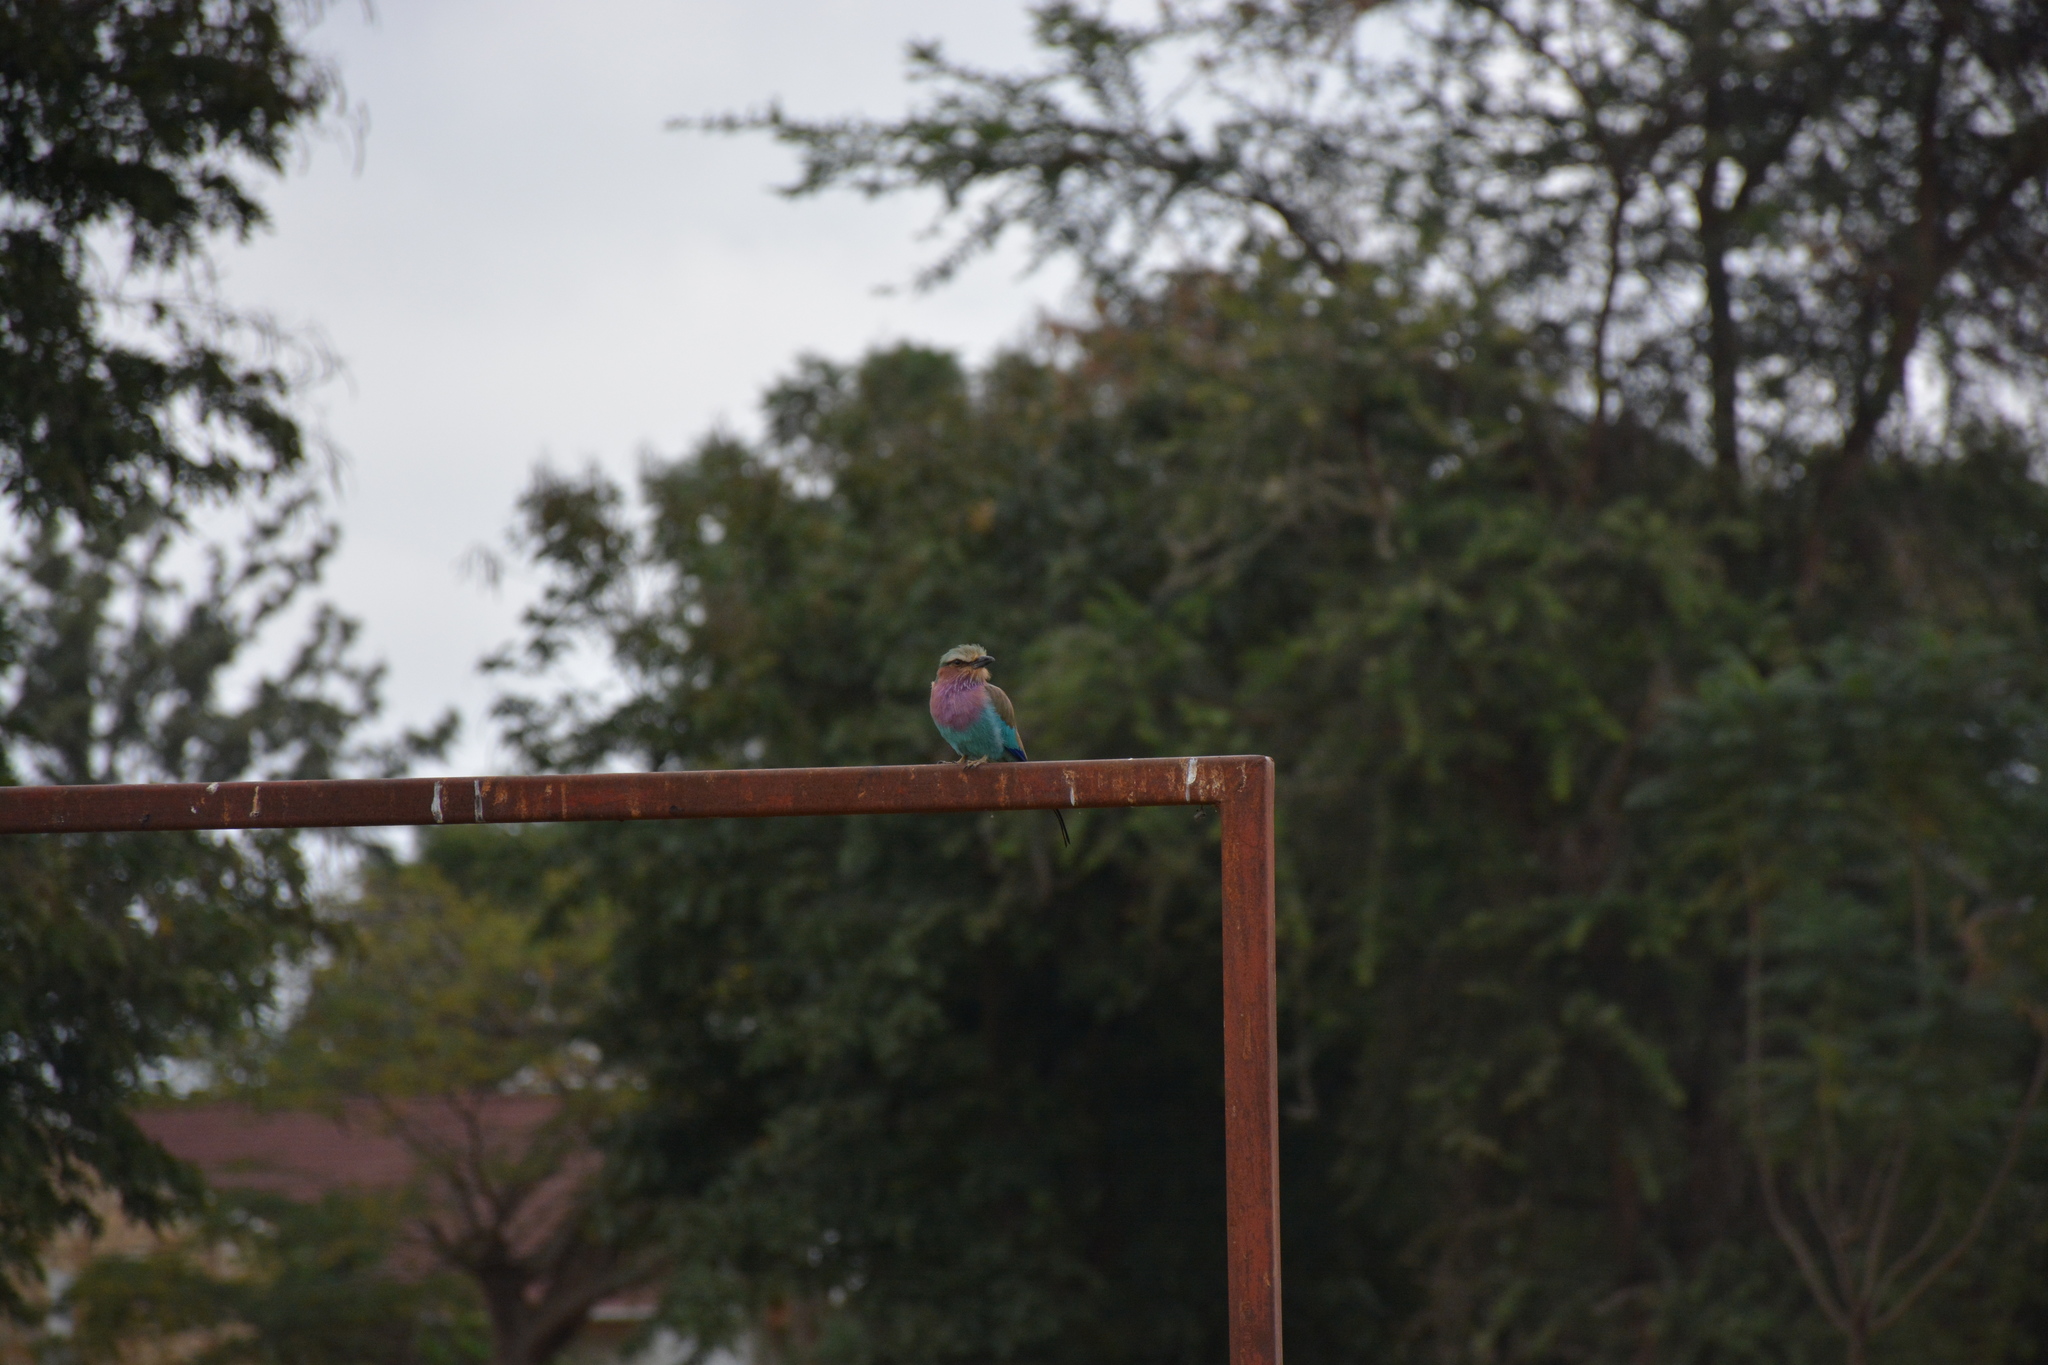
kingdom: Animalia
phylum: Chordata
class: Aves
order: Coraciiformes
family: Coraciidae
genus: Coracias
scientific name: Coracias caudatus
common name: Lilac-breasted roller
